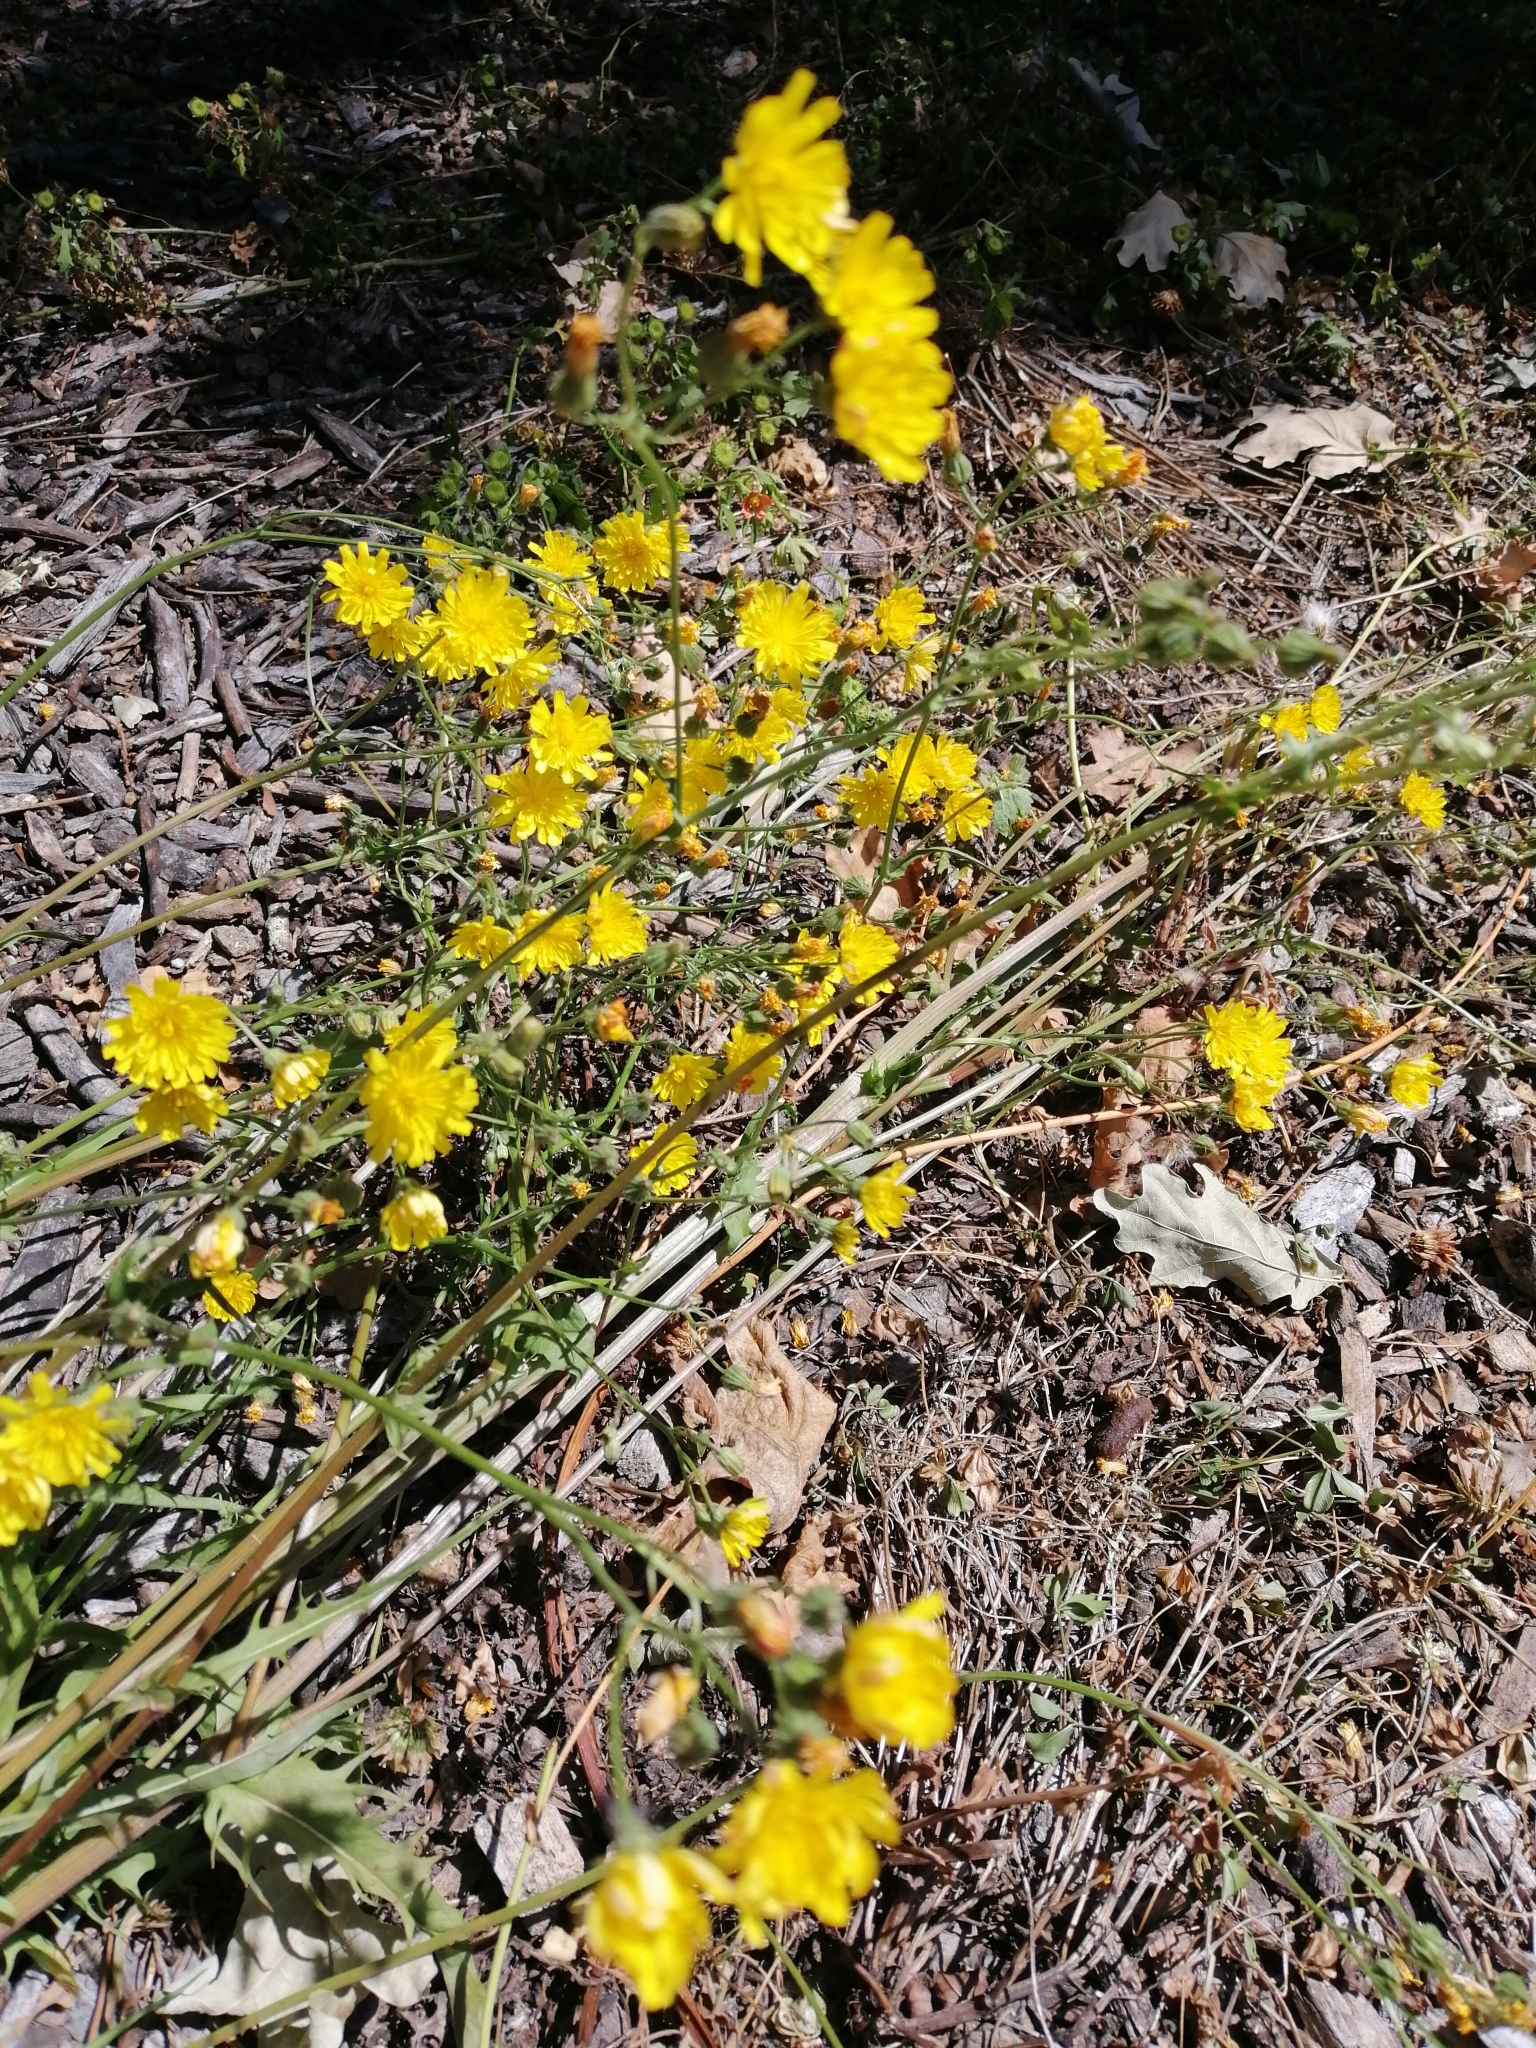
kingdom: Plantae
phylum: Tracheophyta
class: Magnoliopsida
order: Asterales
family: Asteraceae
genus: Crepis
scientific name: Crepis capillaris
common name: Smooth hawksbeard
